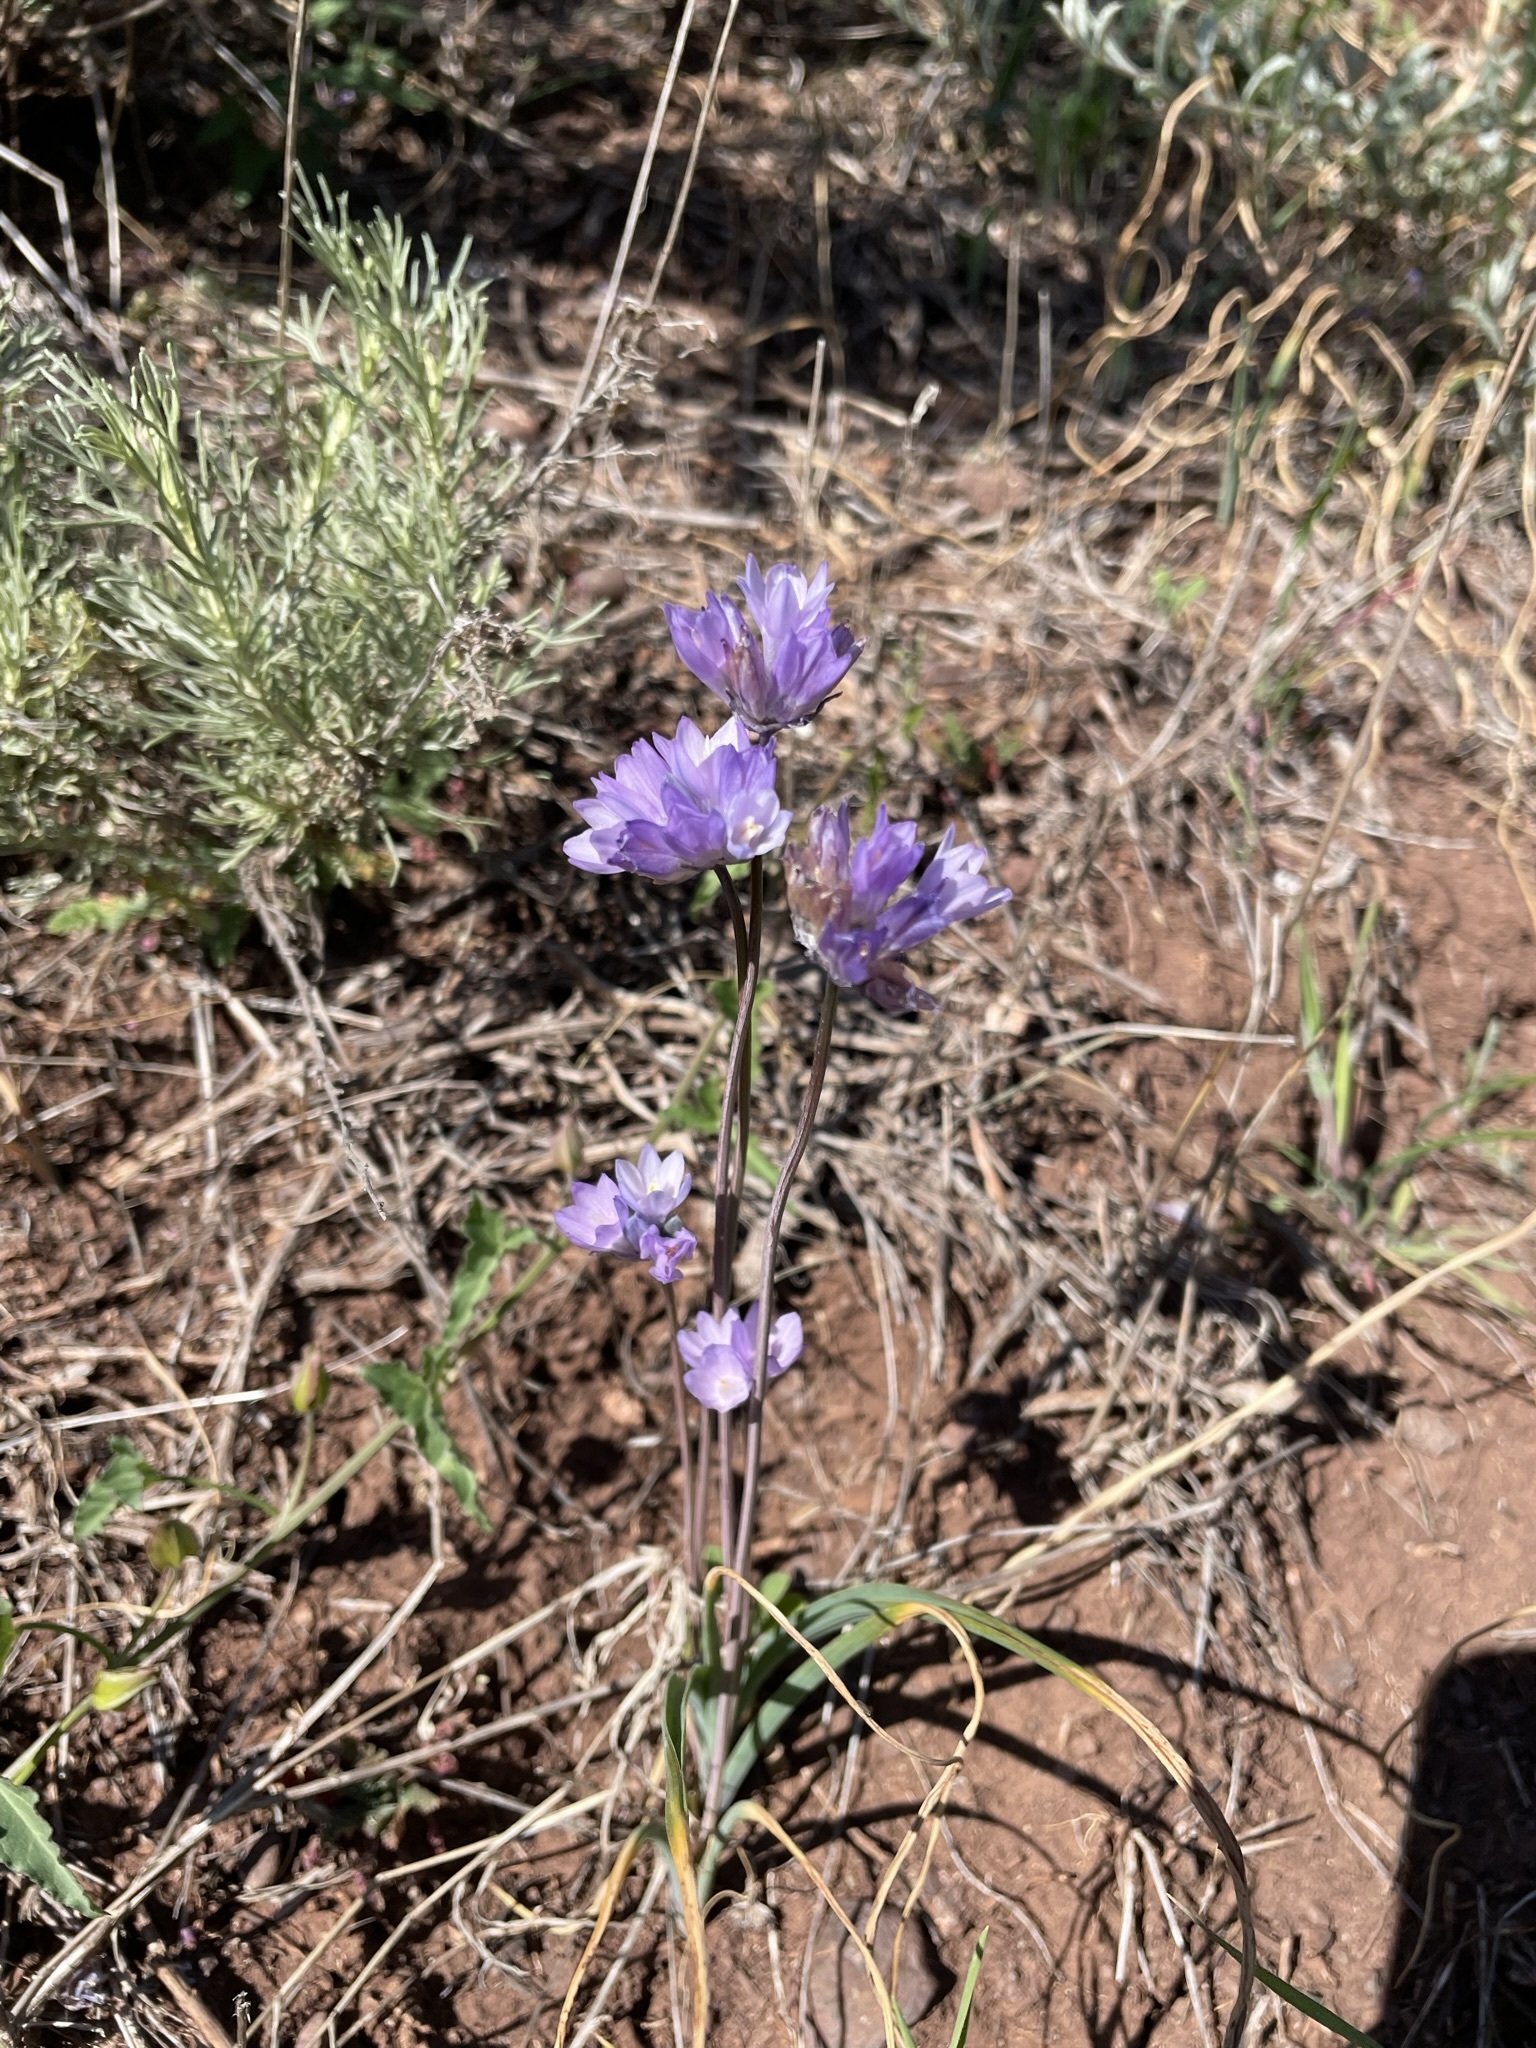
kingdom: Plantae
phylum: Tracheophyta
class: Liliopsida
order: Asparagales
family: Asparagaceae
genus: Dipterostemon
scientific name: Dipterostemon capitatus
